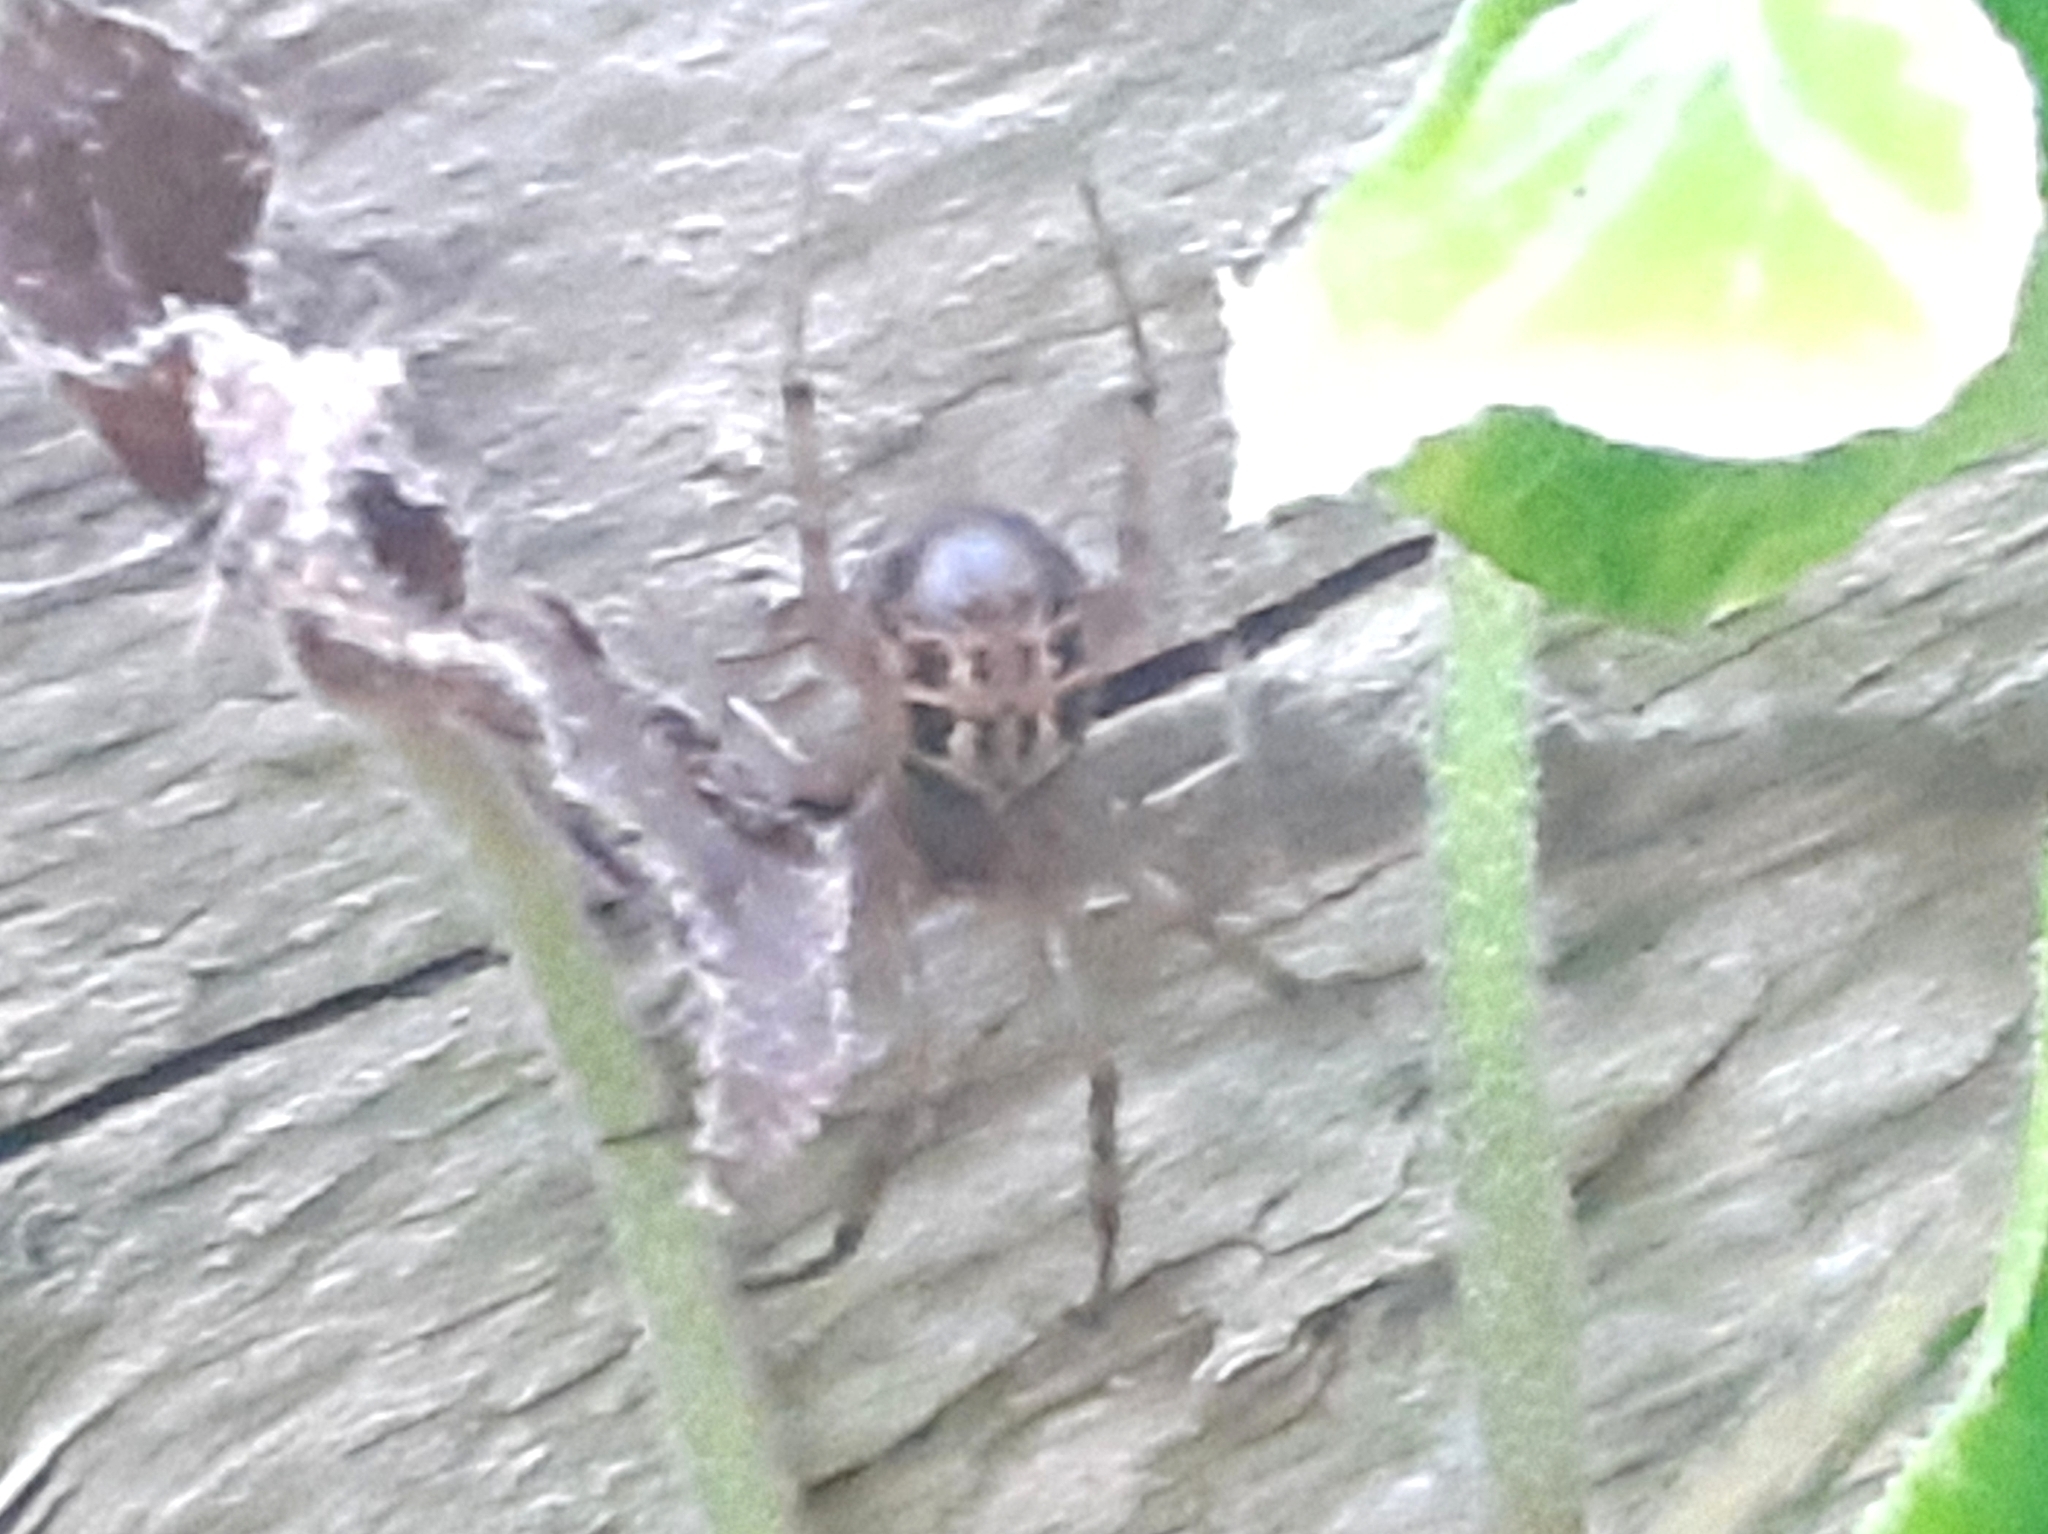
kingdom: Animalia
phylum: Arthropoda
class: Arachnida
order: Araneae
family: Theridiidae
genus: Steatoda
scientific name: Steatoda nobilis
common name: Cobweb weaver
